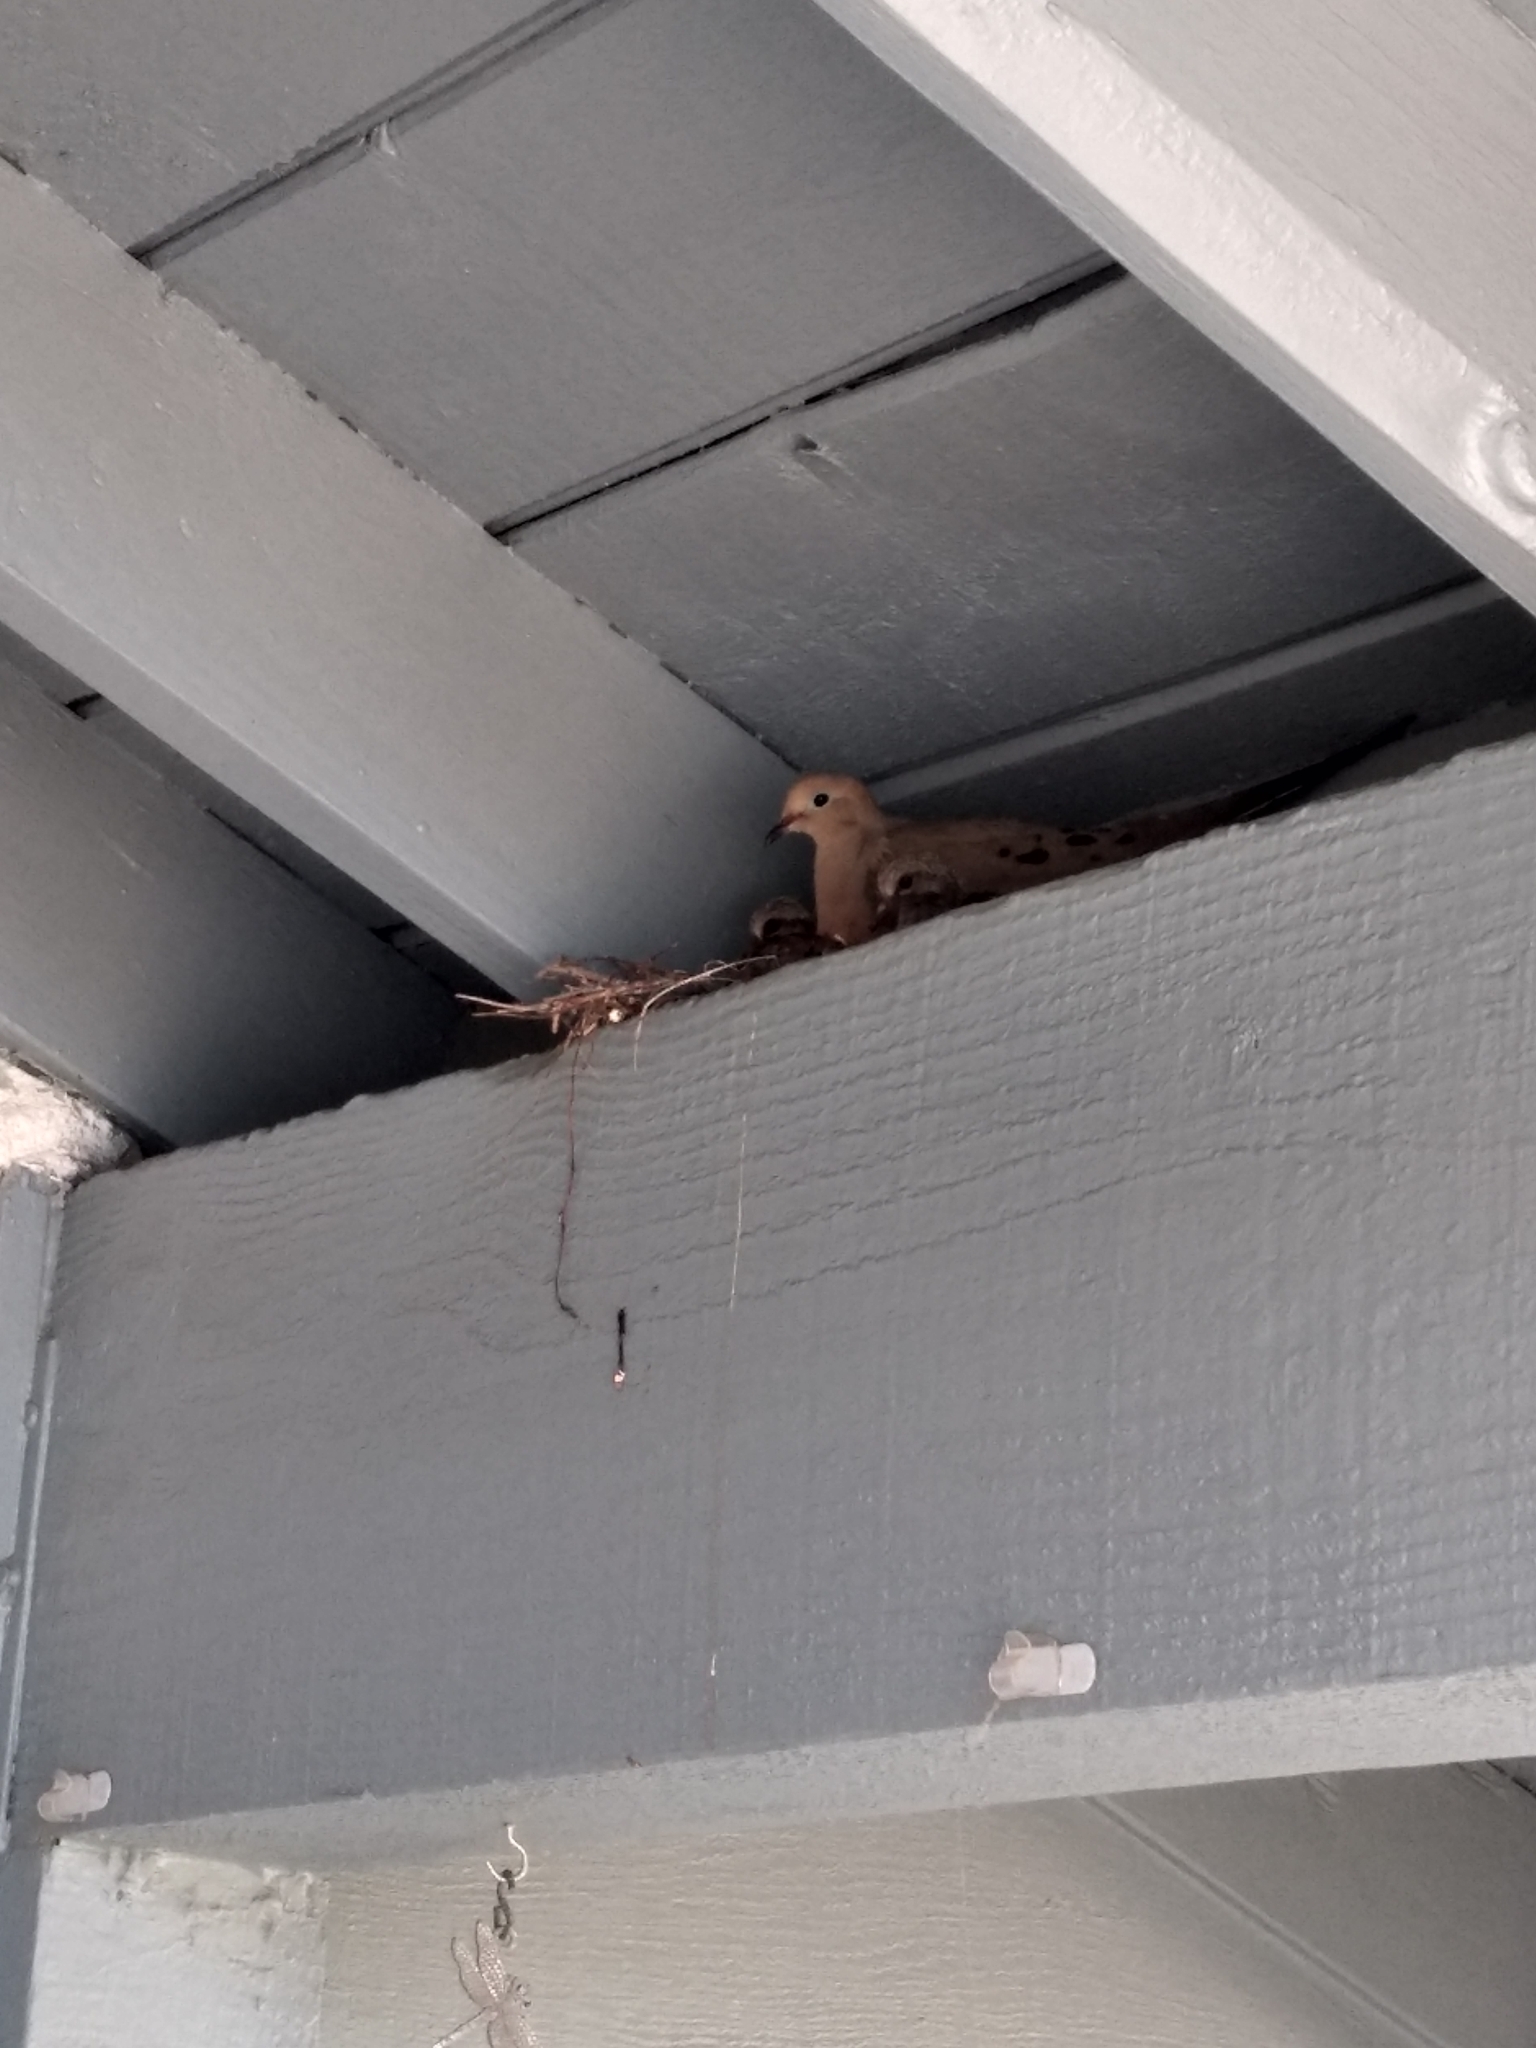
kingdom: Animalia
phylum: Chordata
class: Aves
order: Columbiformes
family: Columbidae
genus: Zenaida
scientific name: Zenaida macroura
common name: Mourning dove
